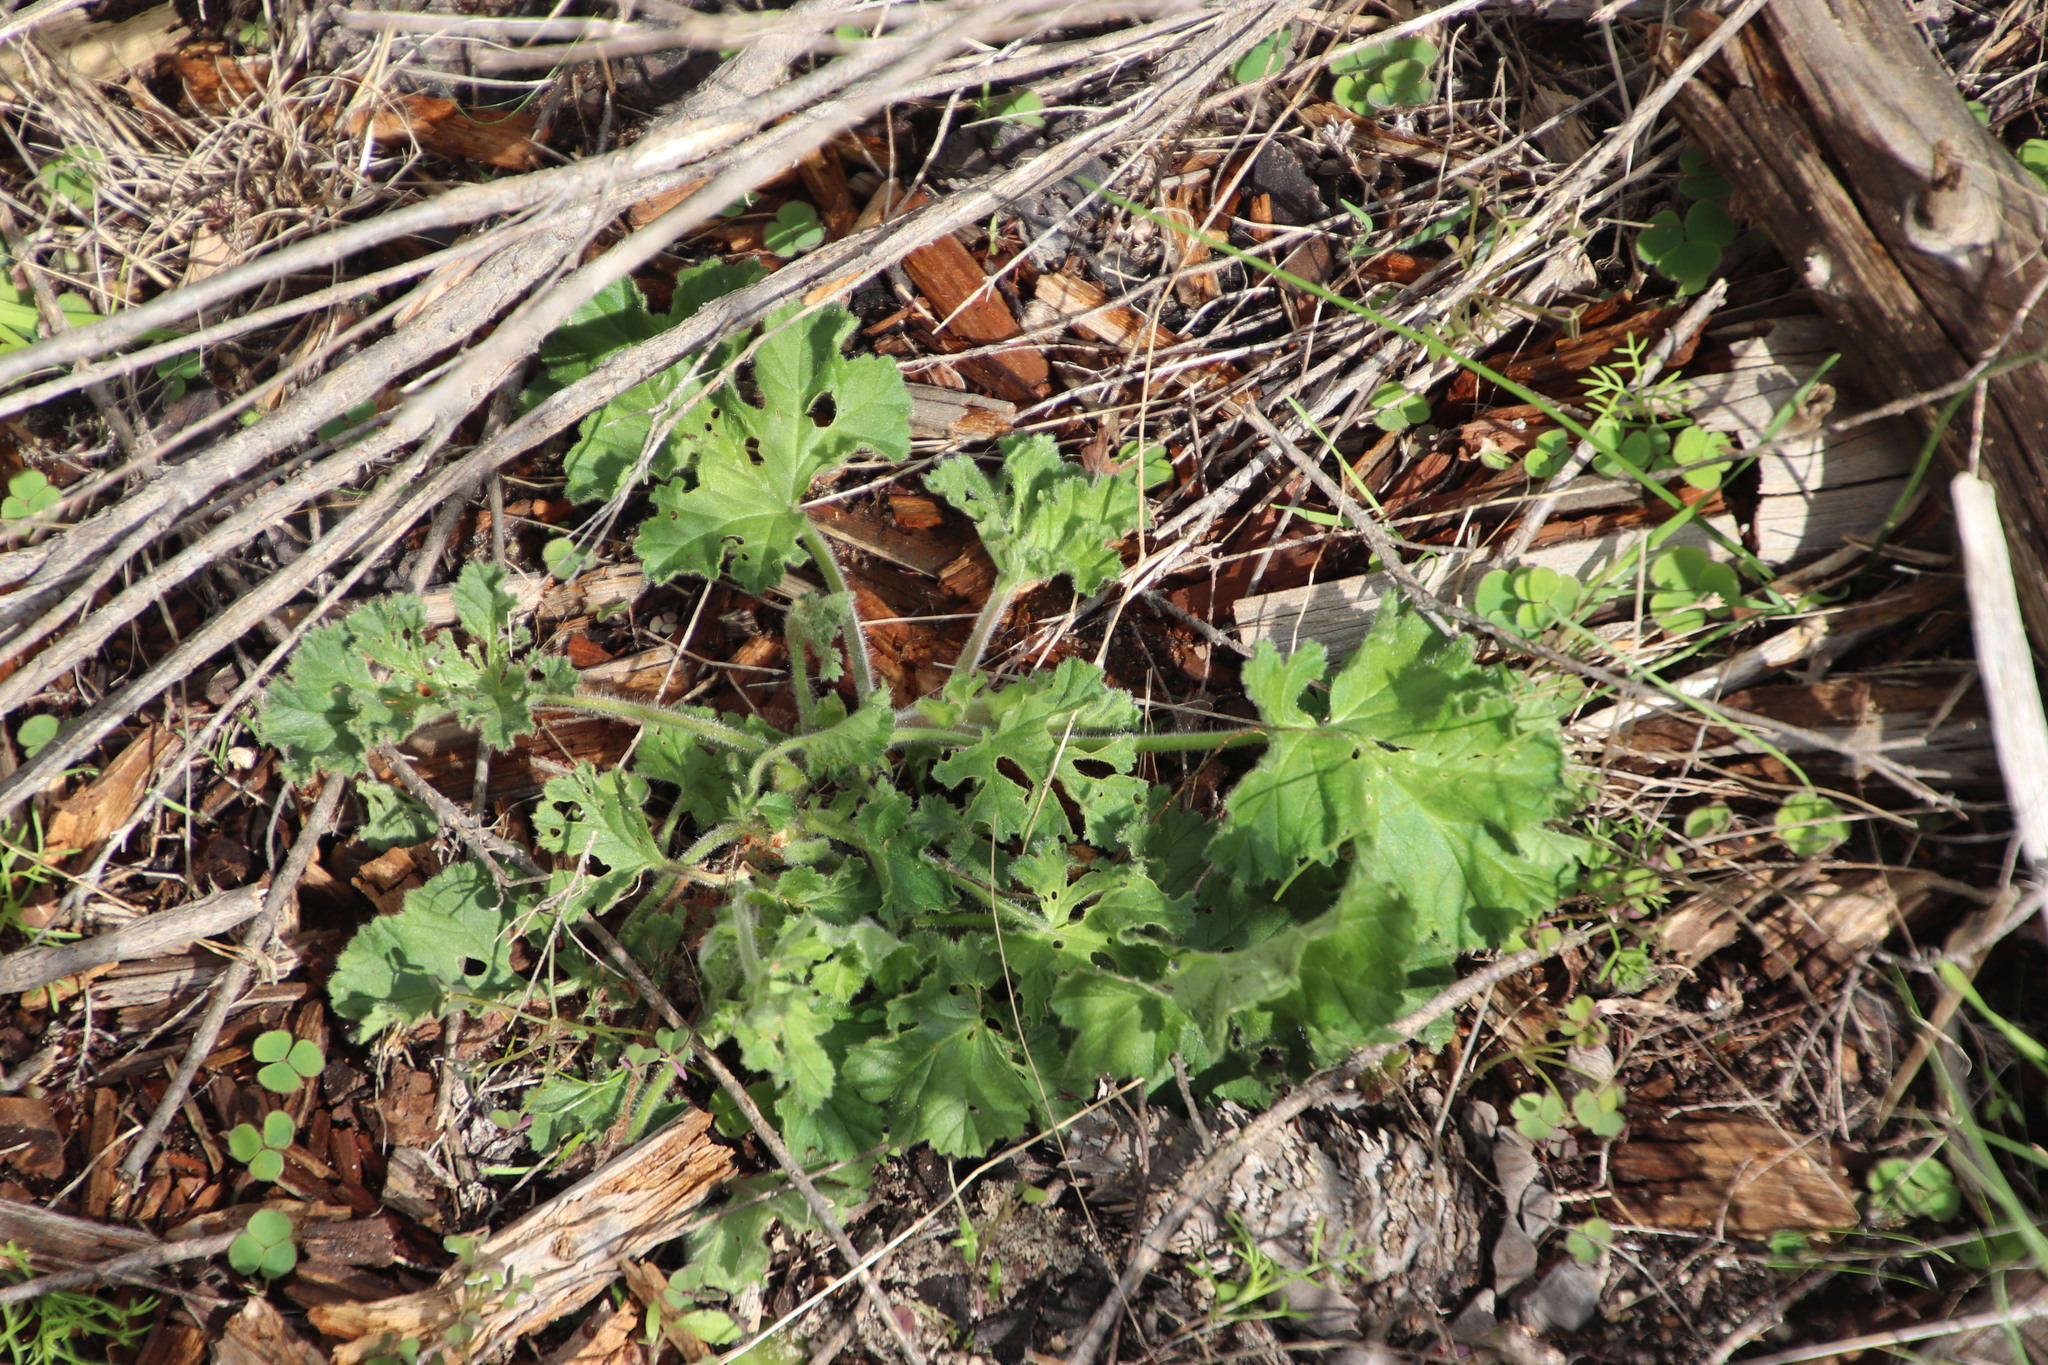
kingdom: Plantae
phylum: Tracheophyta
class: Magnoliopsida
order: Geraniales
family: Geraniaceae
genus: Pelargonium
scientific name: Pelargonium capitatum
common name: Rose scented geranium
